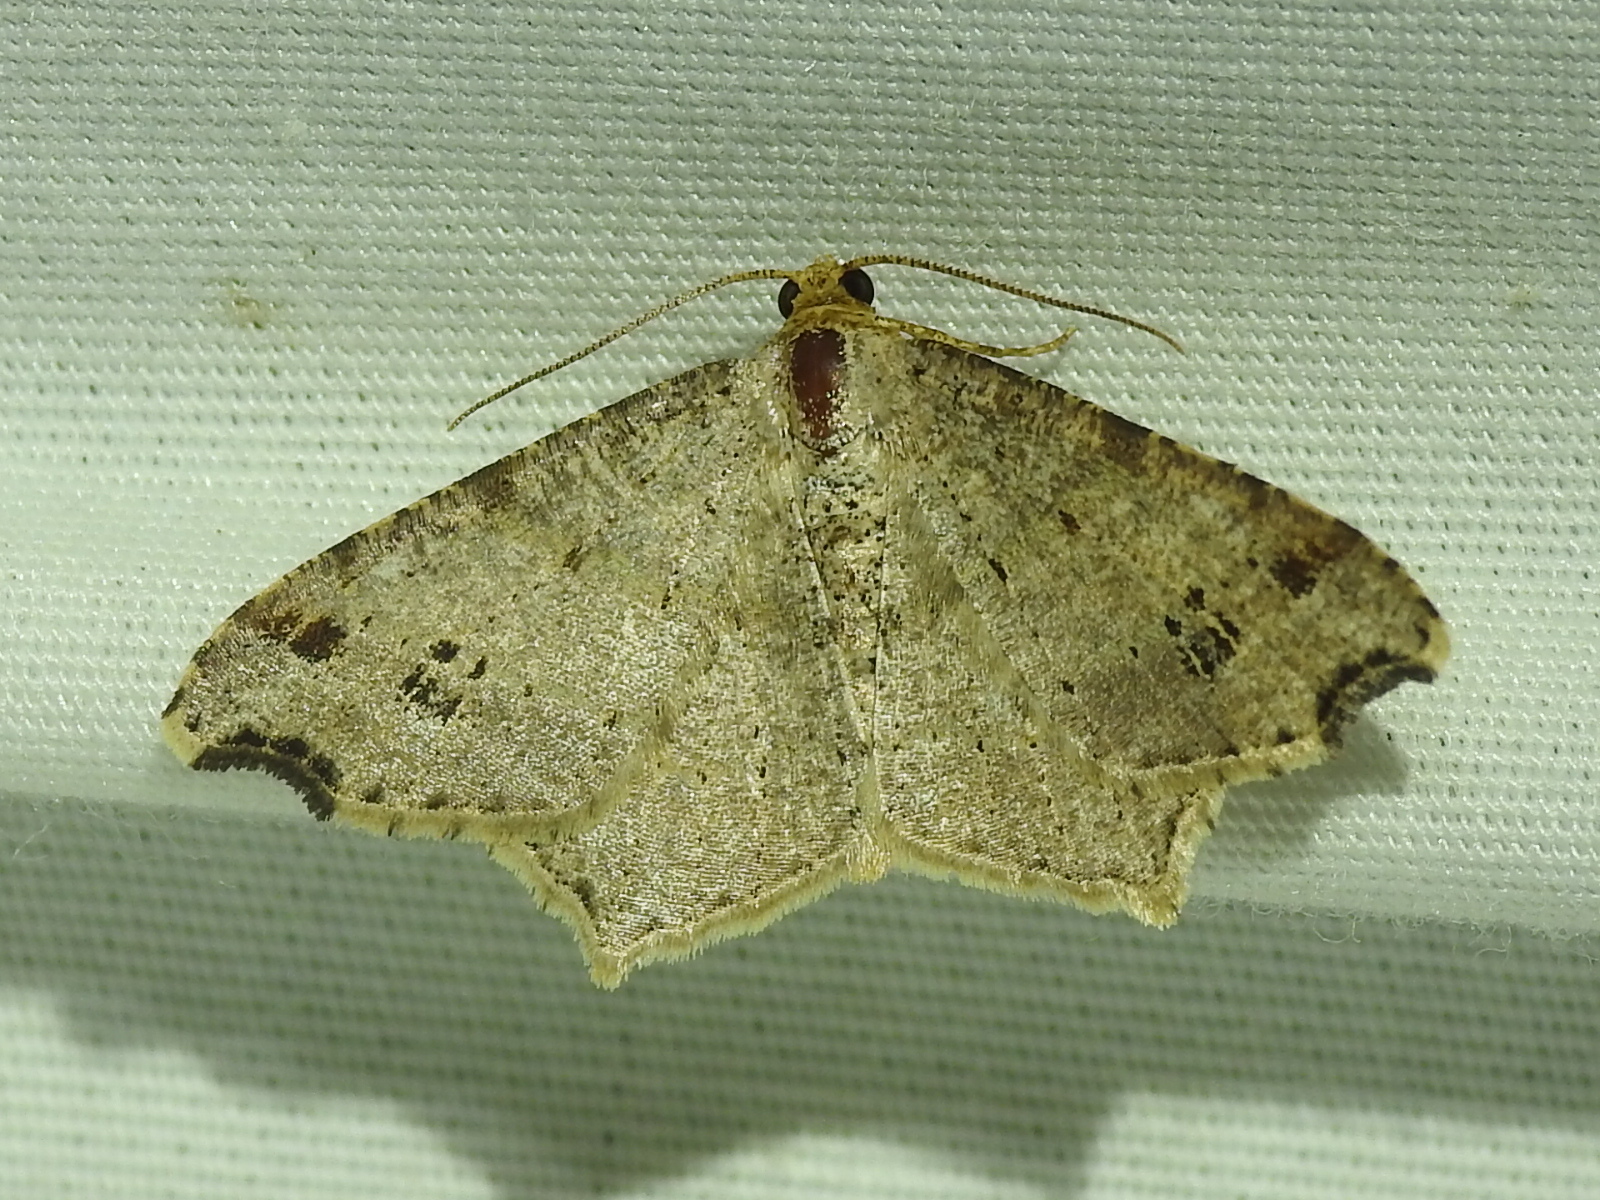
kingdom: Animalia
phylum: Arthropoda
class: Insecta
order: Lepidoptera
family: Geometridae
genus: Macaria
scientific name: Macaria aemulataria
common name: Common angle
